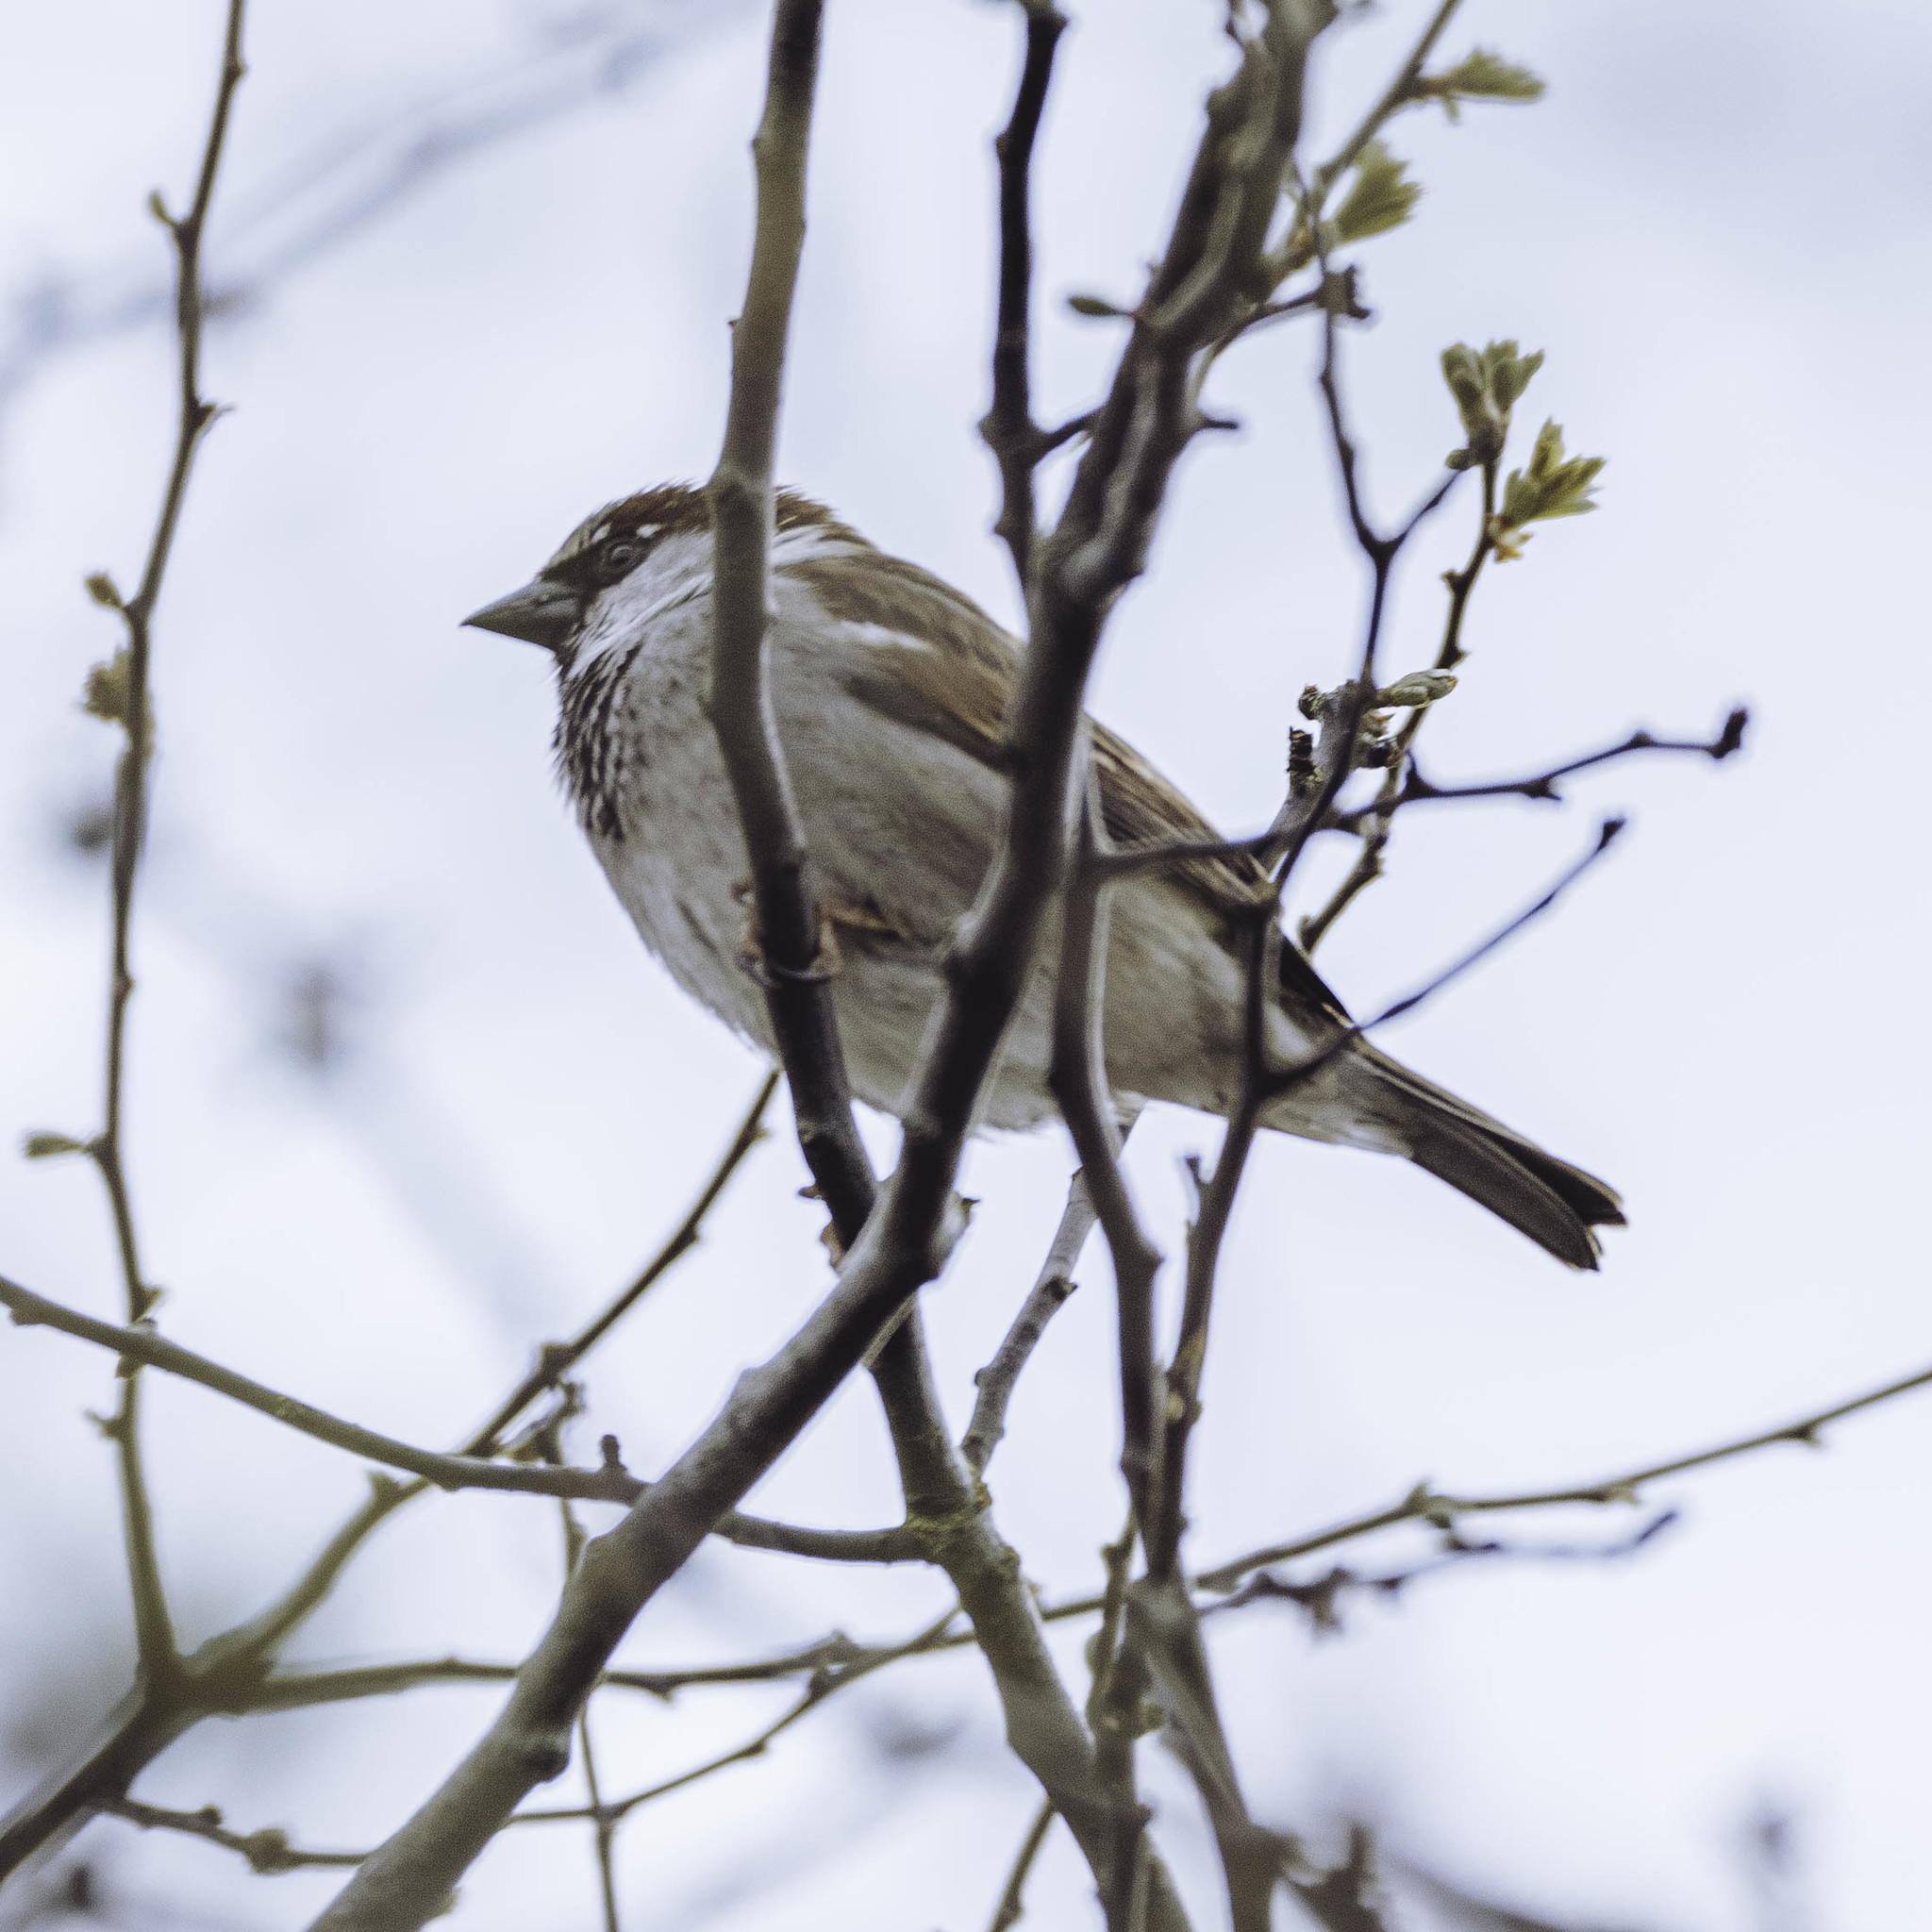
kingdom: Animalia
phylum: Chordata
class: Aves
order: Passeriformes
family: Passeridae
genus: Passer
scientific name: Passer domesticus
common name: House sparrow
